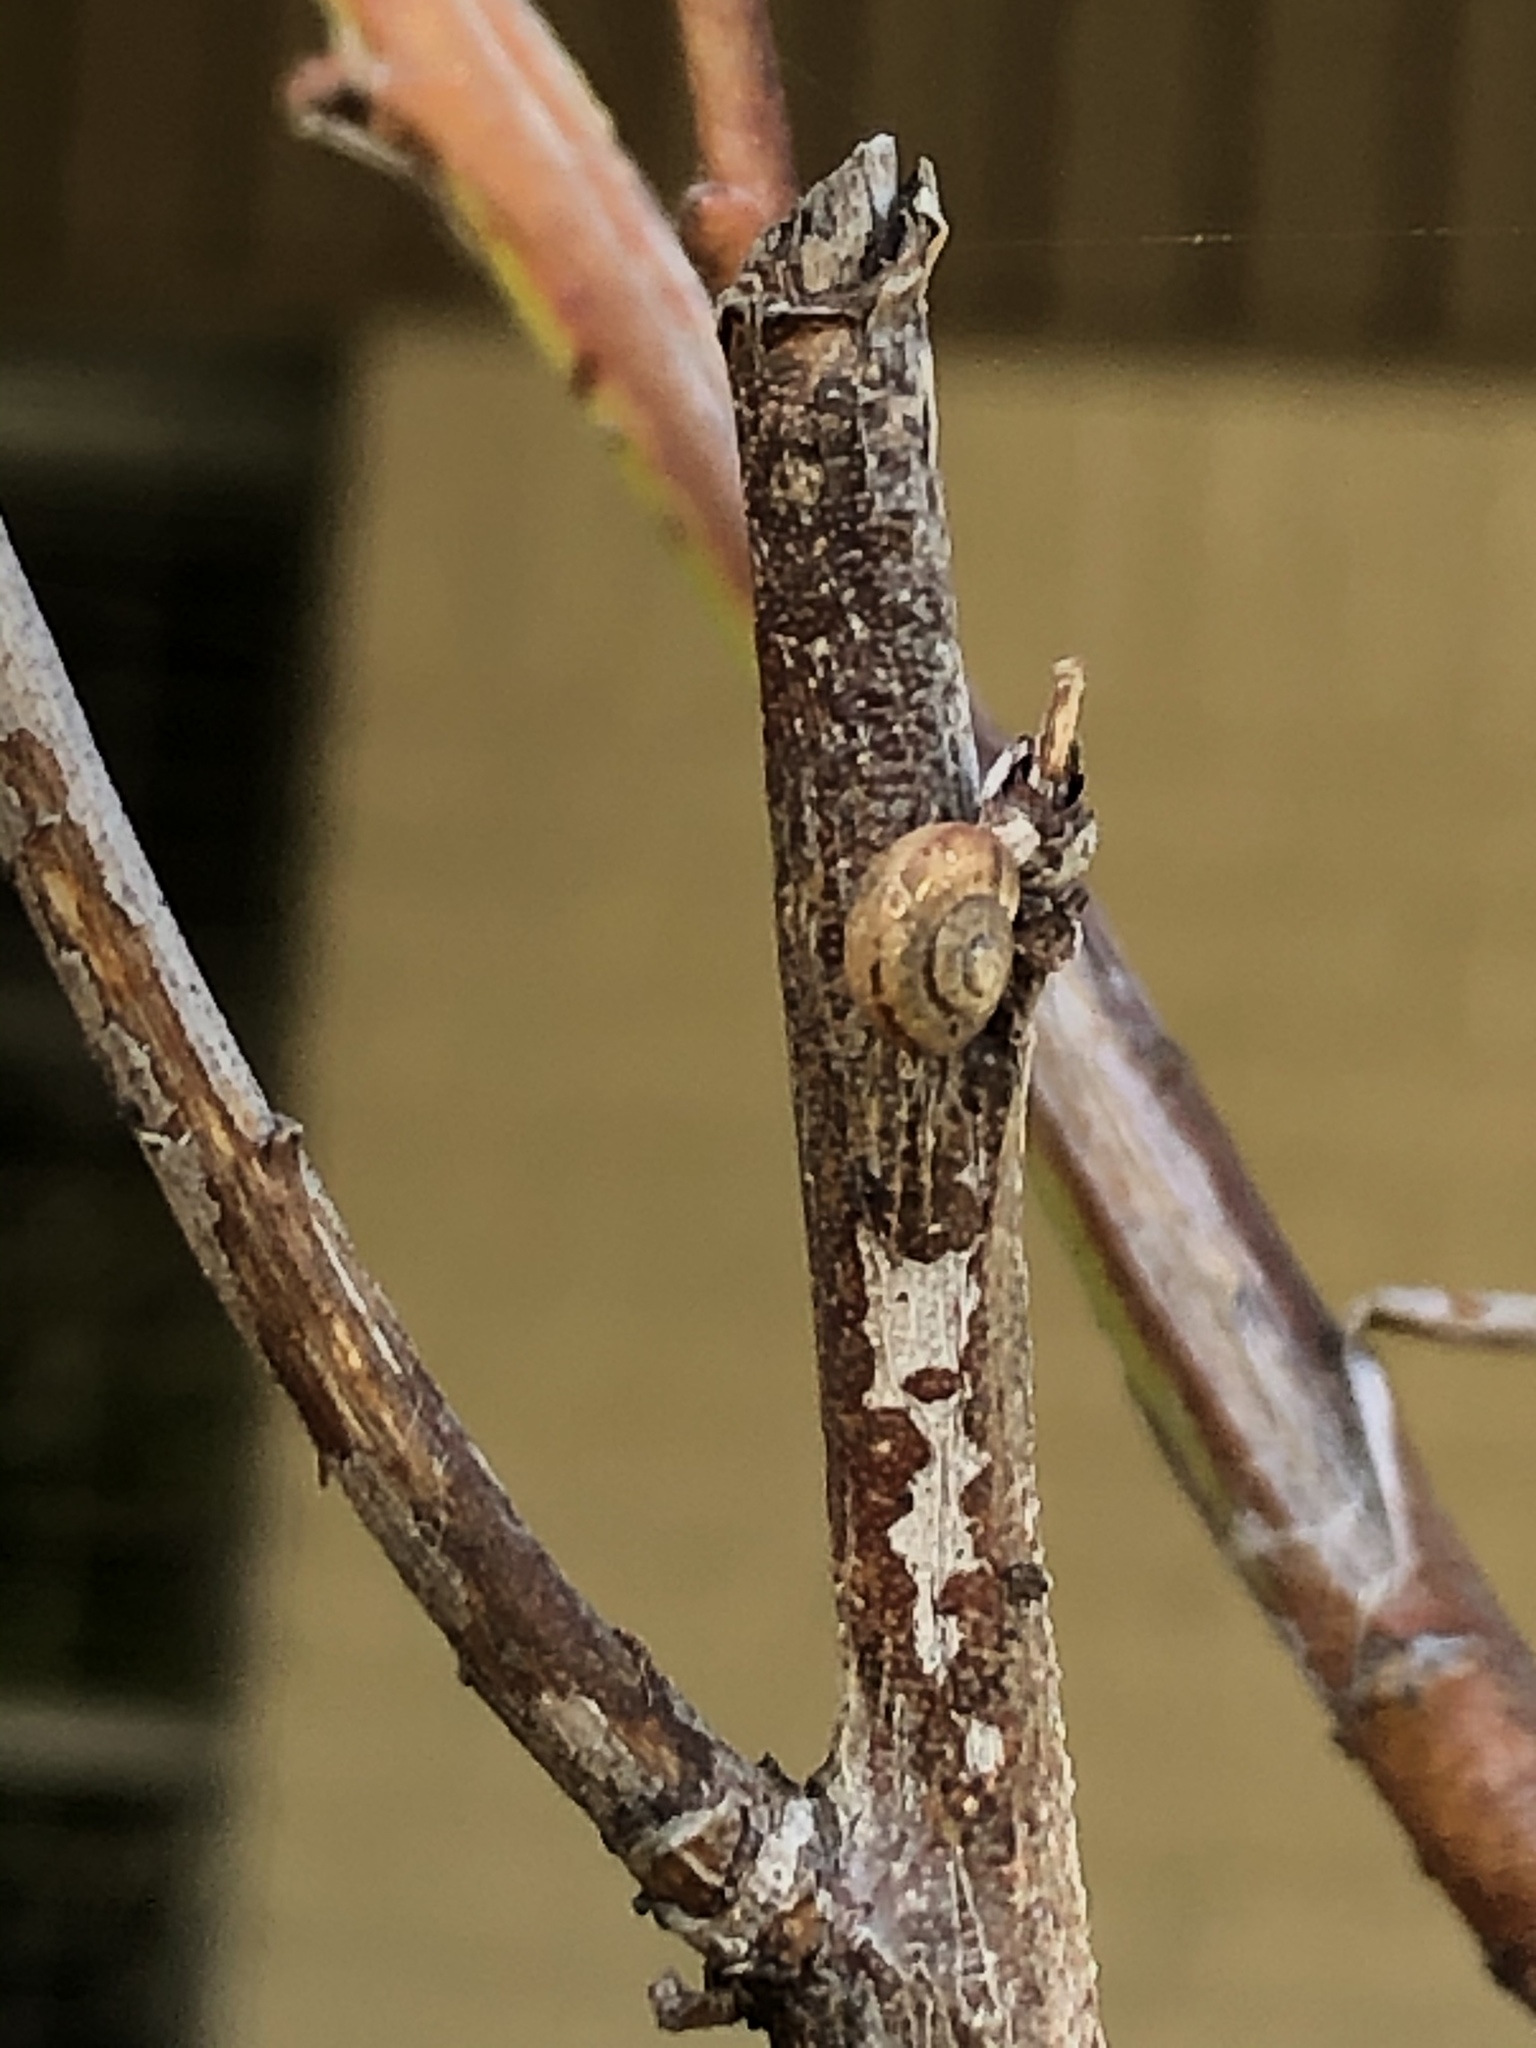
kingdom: Animalia
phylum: Mollusca
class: Gastropoda
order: Stylommatophora
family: Camaenidae
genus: Bradybaena
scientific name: Bradybaena similaris
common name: Asian trampsnail
